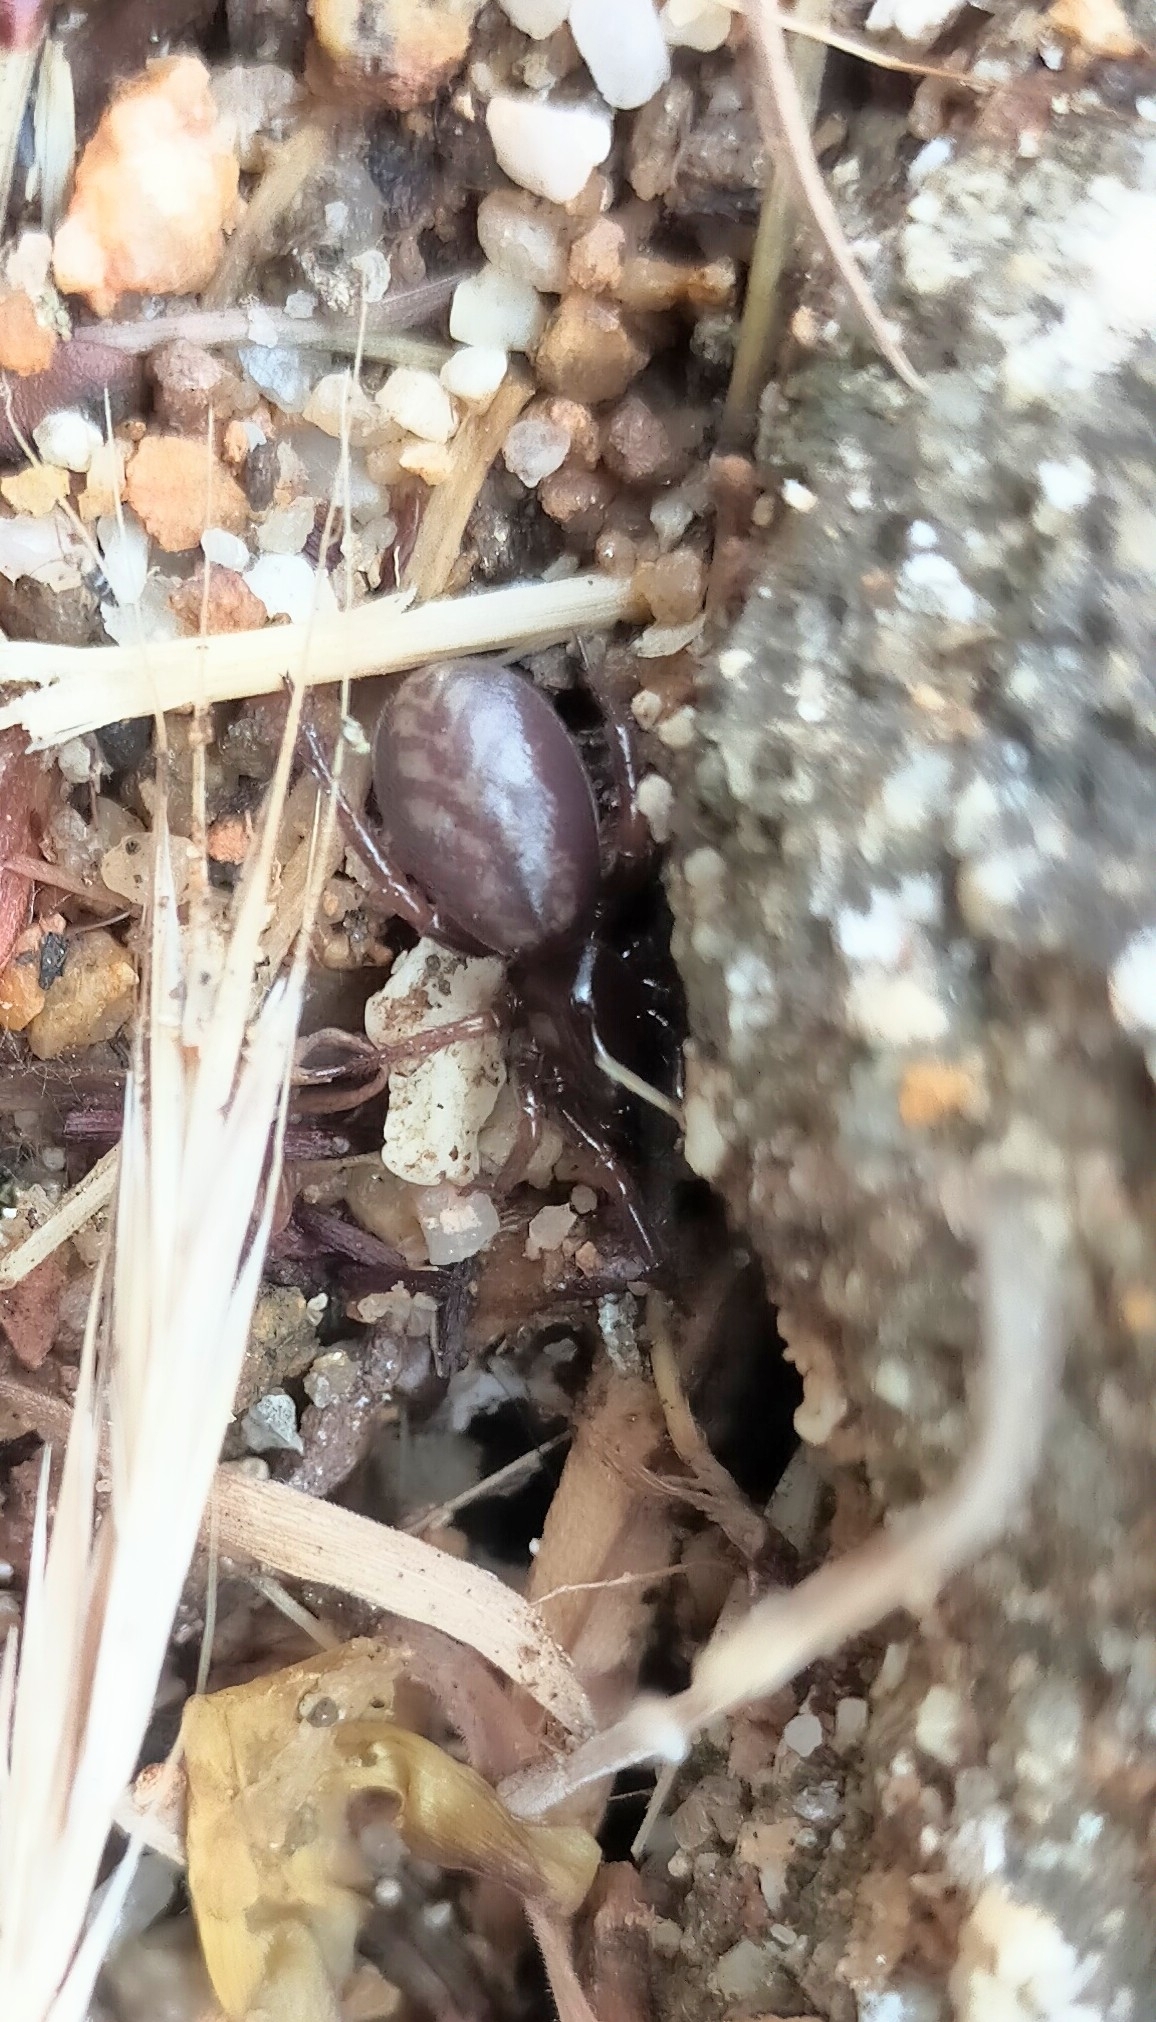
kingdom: Animalia
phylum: Arthropoda
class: Arachnida
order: Araneae
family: Zodariidae
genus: Selamia
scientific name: Selamia reticulata
